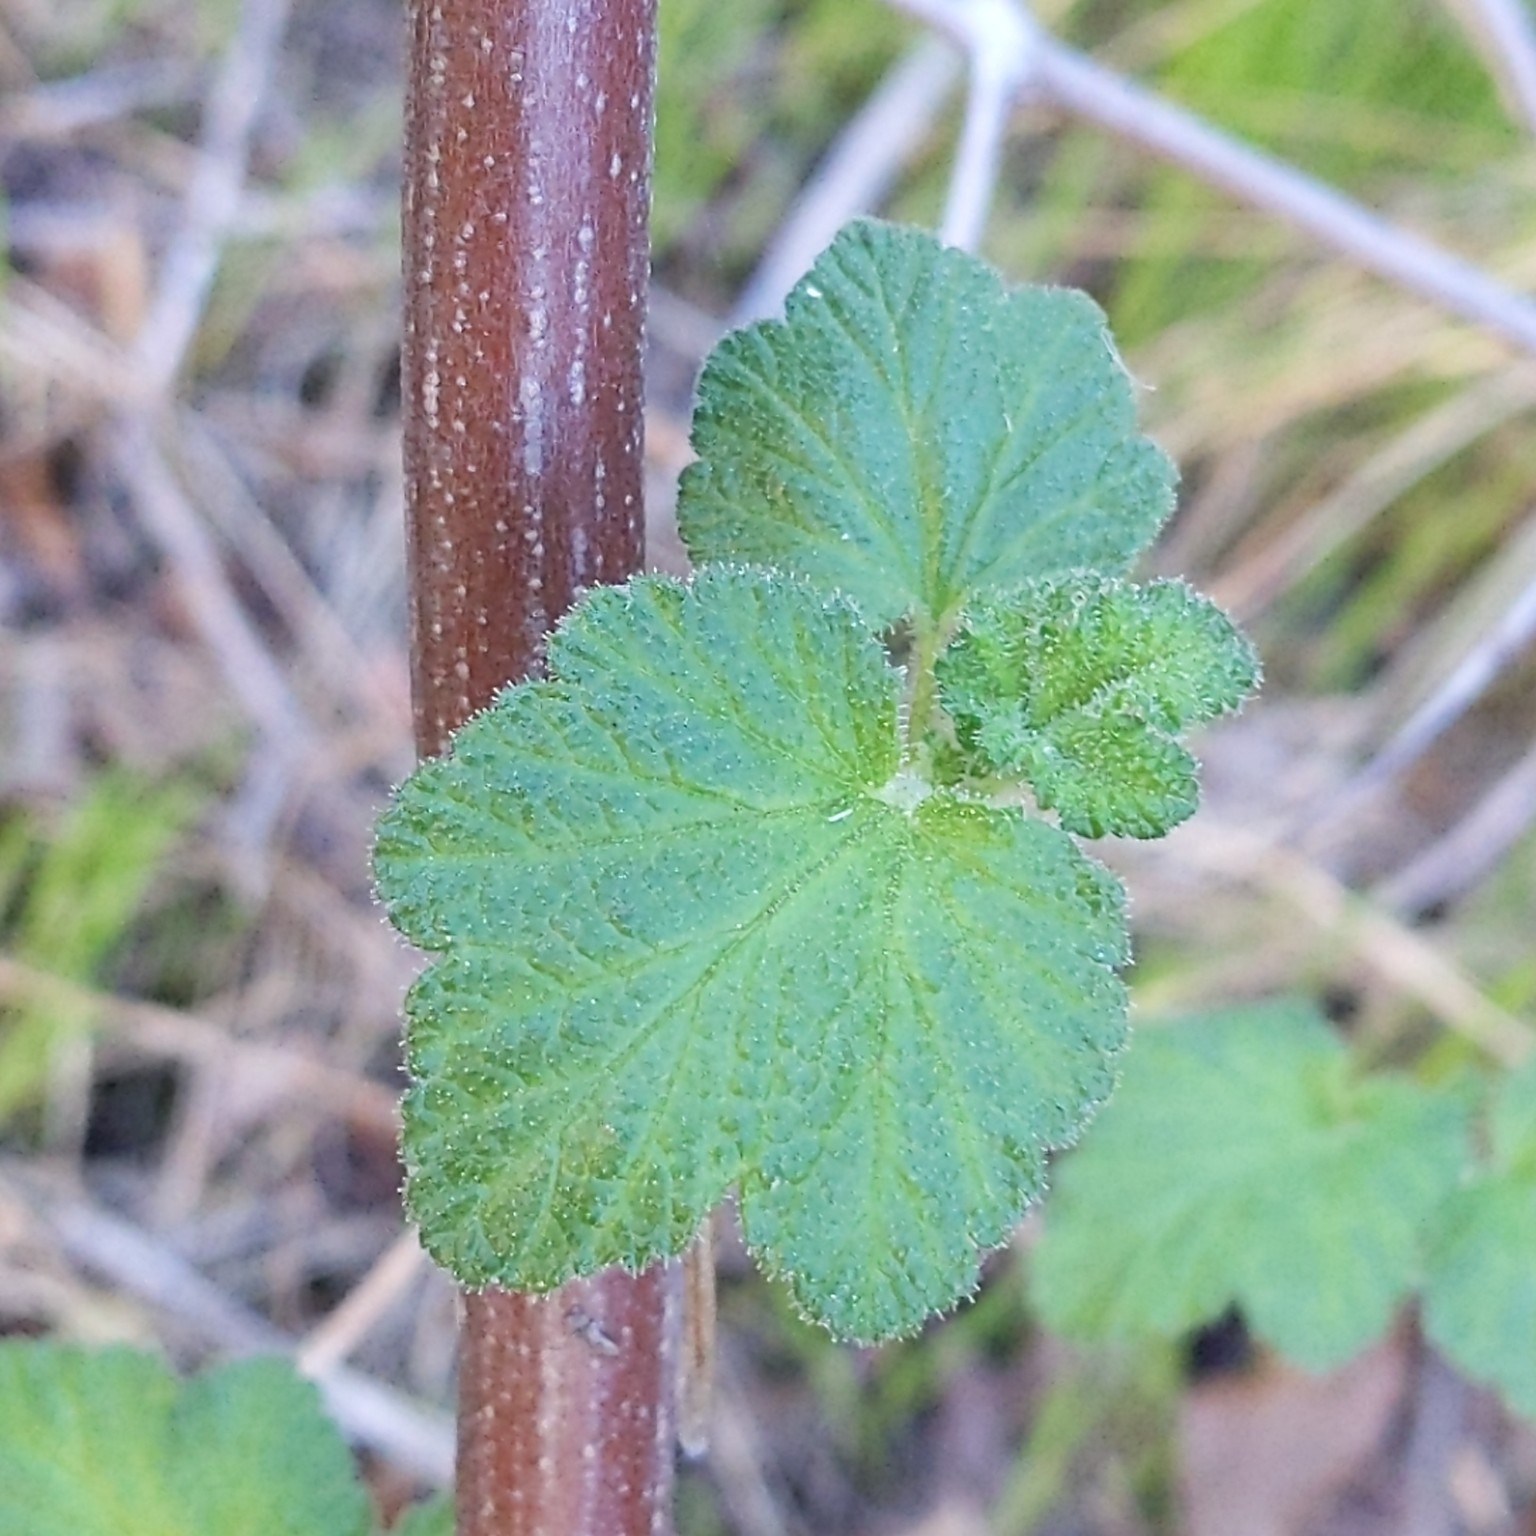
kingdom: Plantae
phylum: Tracheophyta
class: Magnoliopsida
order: Saxifragales
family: Grossulariaceae
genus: Ribes
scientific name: Ribes malvaceum
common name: Chaparral currant
